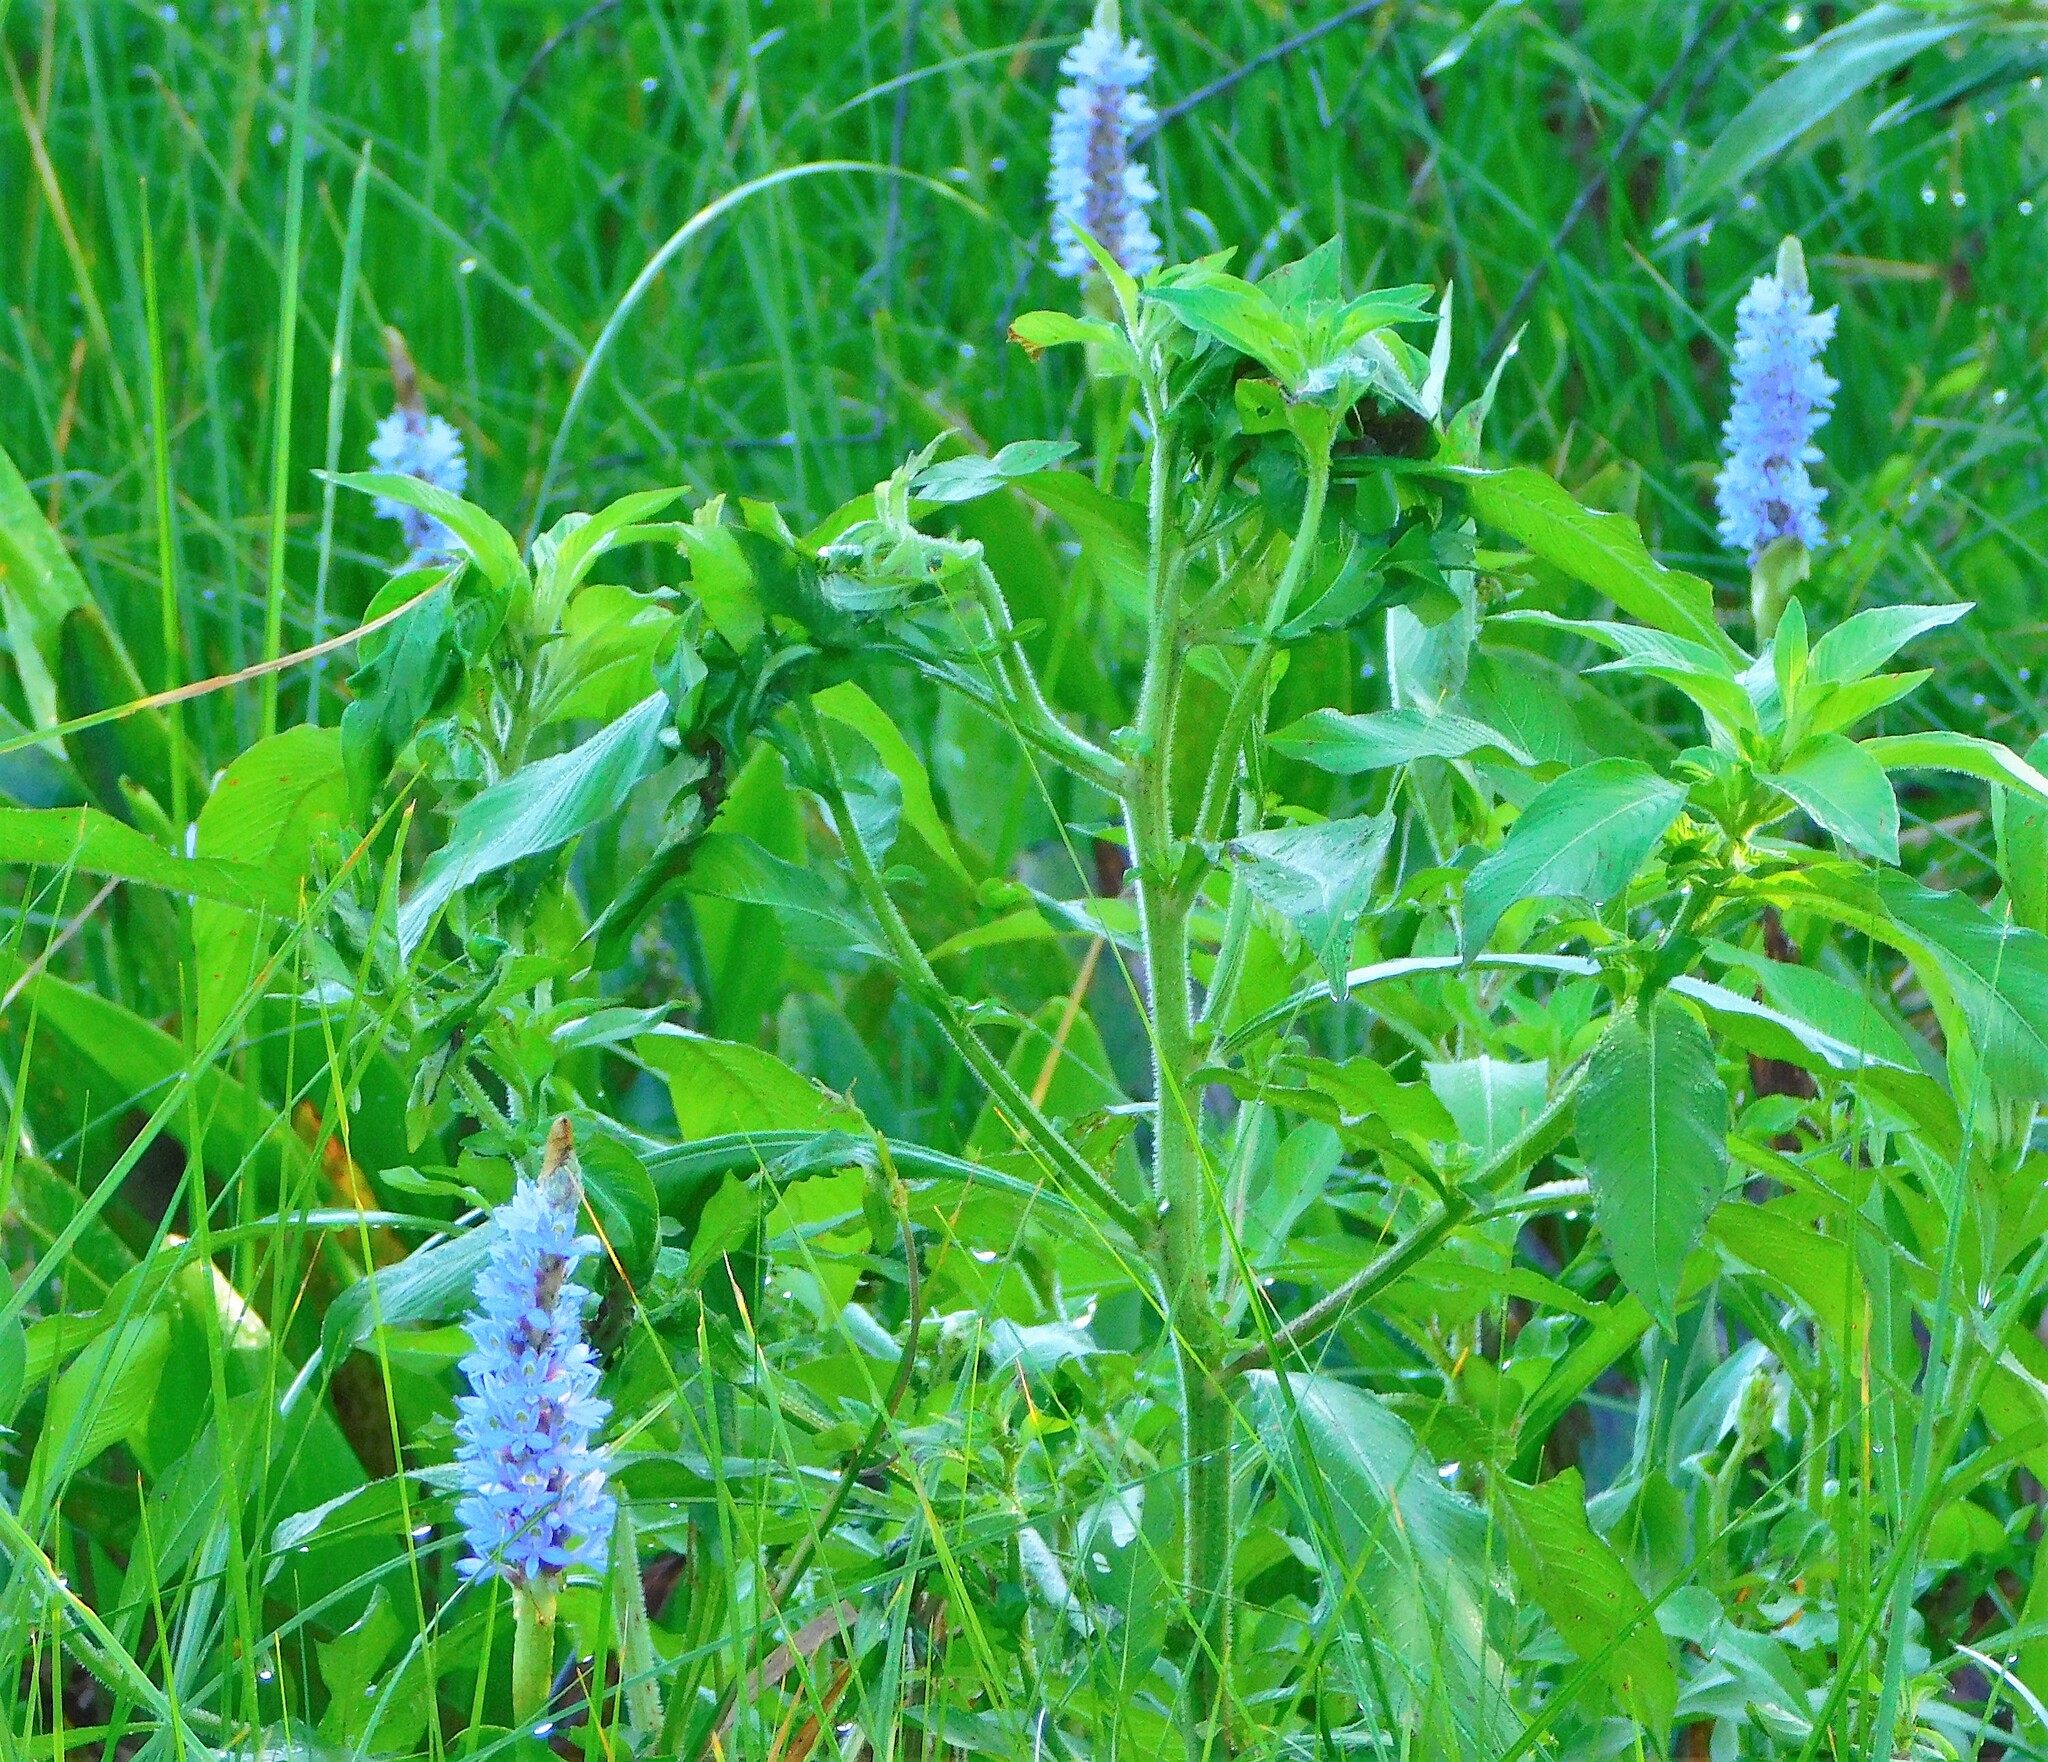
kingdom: Plantae
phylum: Tracheophyta
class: Liliopsida
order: Commelinales
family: Pontederiaceae
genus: Pontederia
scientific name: Pontederia cordata
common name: Pickerelweed
